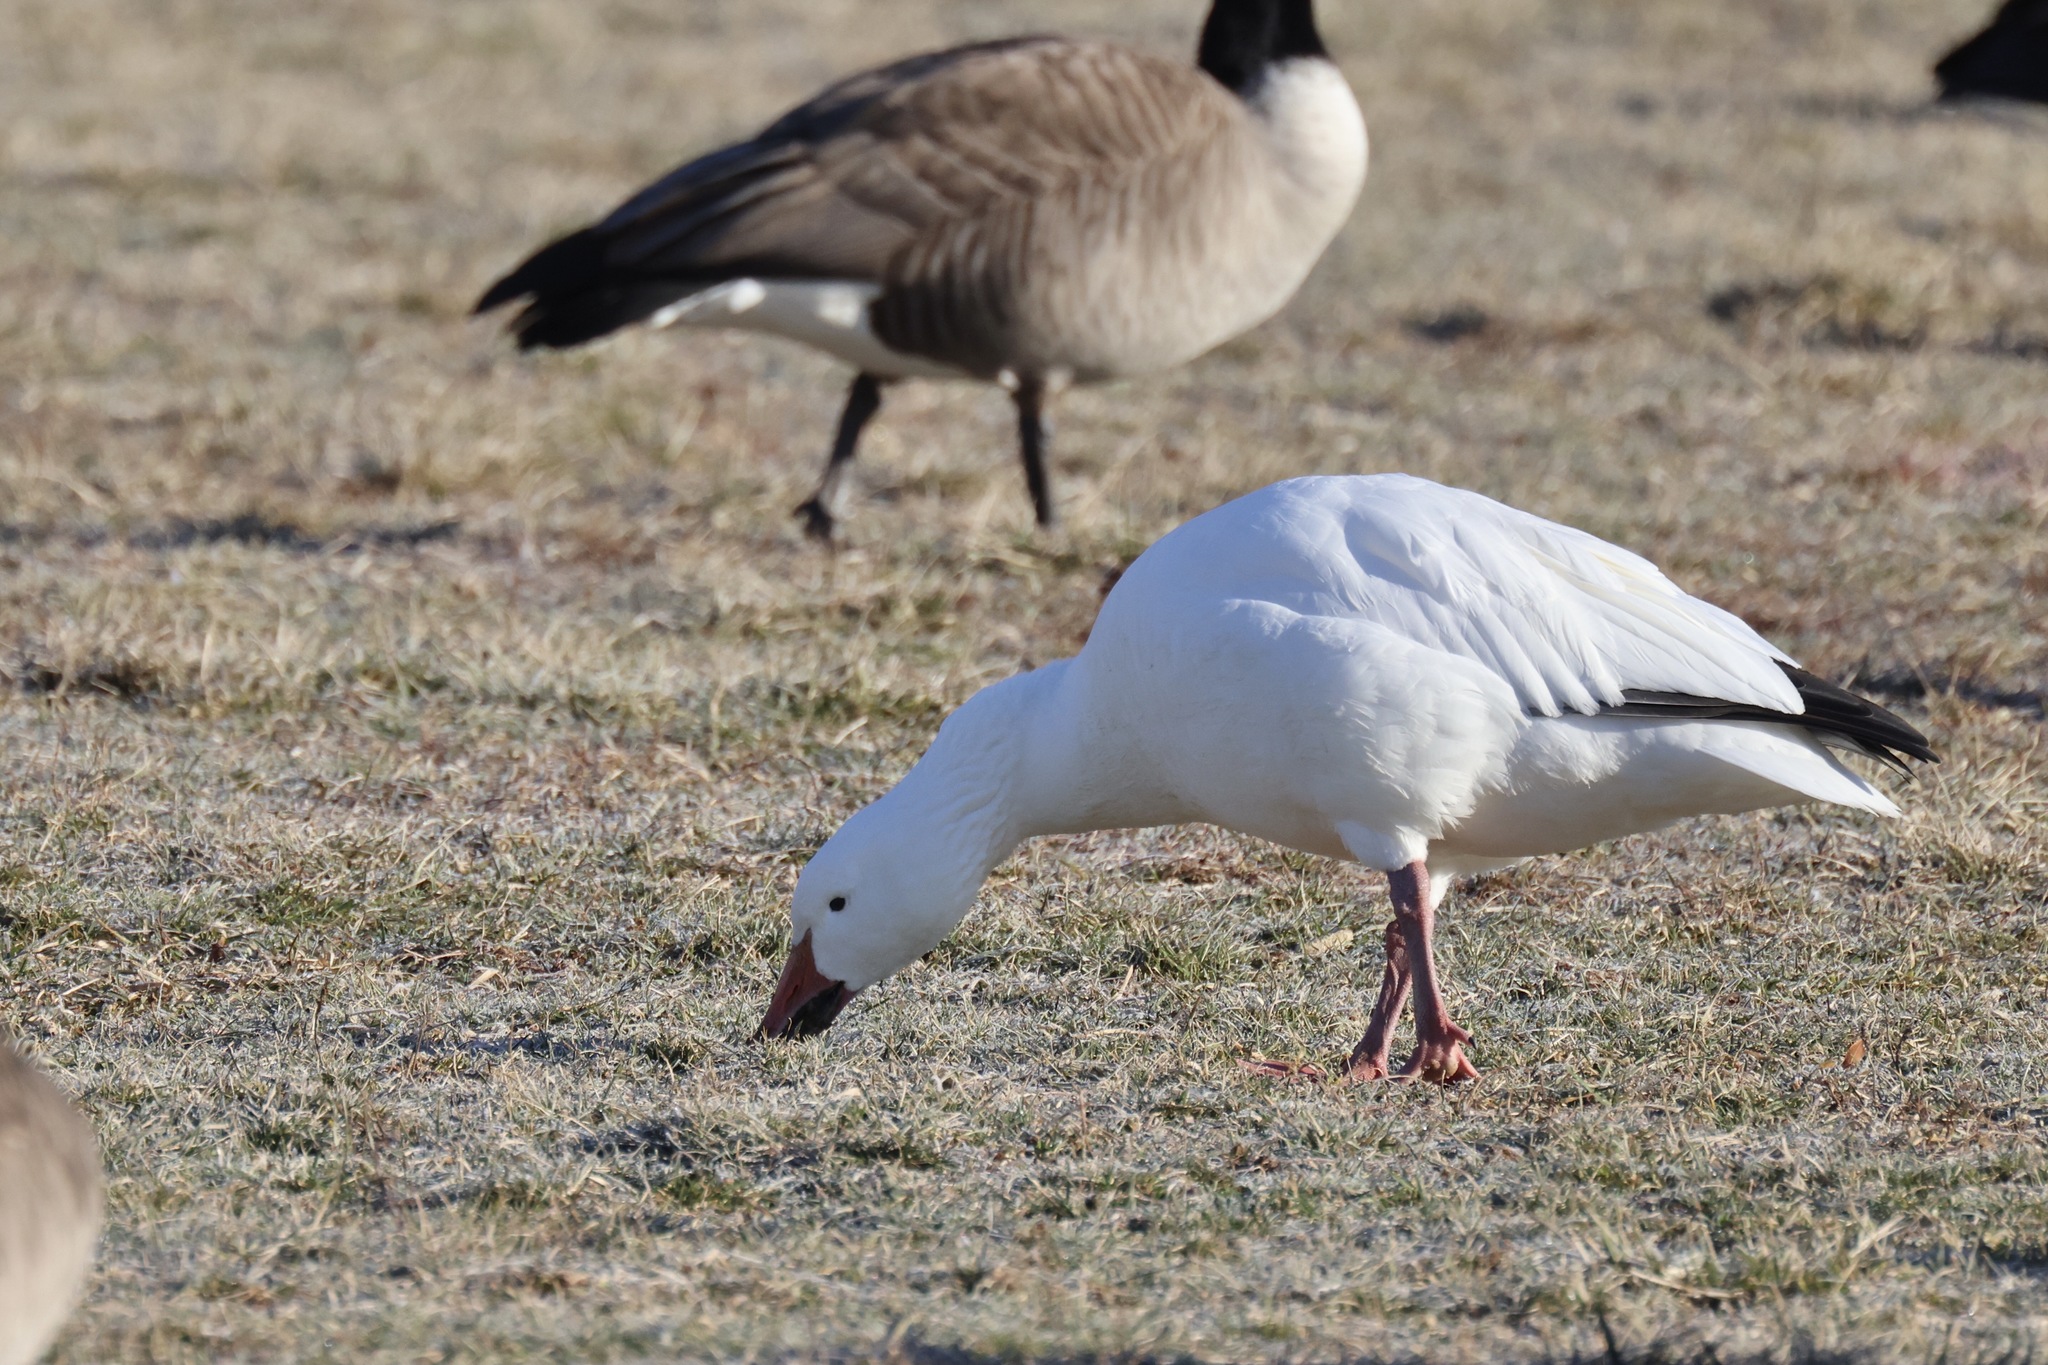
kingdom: Animalia
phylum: Chordata
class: Aves
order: Anseriformes
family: Anatidae
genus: Anser
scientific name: Anser caerulescens
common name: Snow goose
